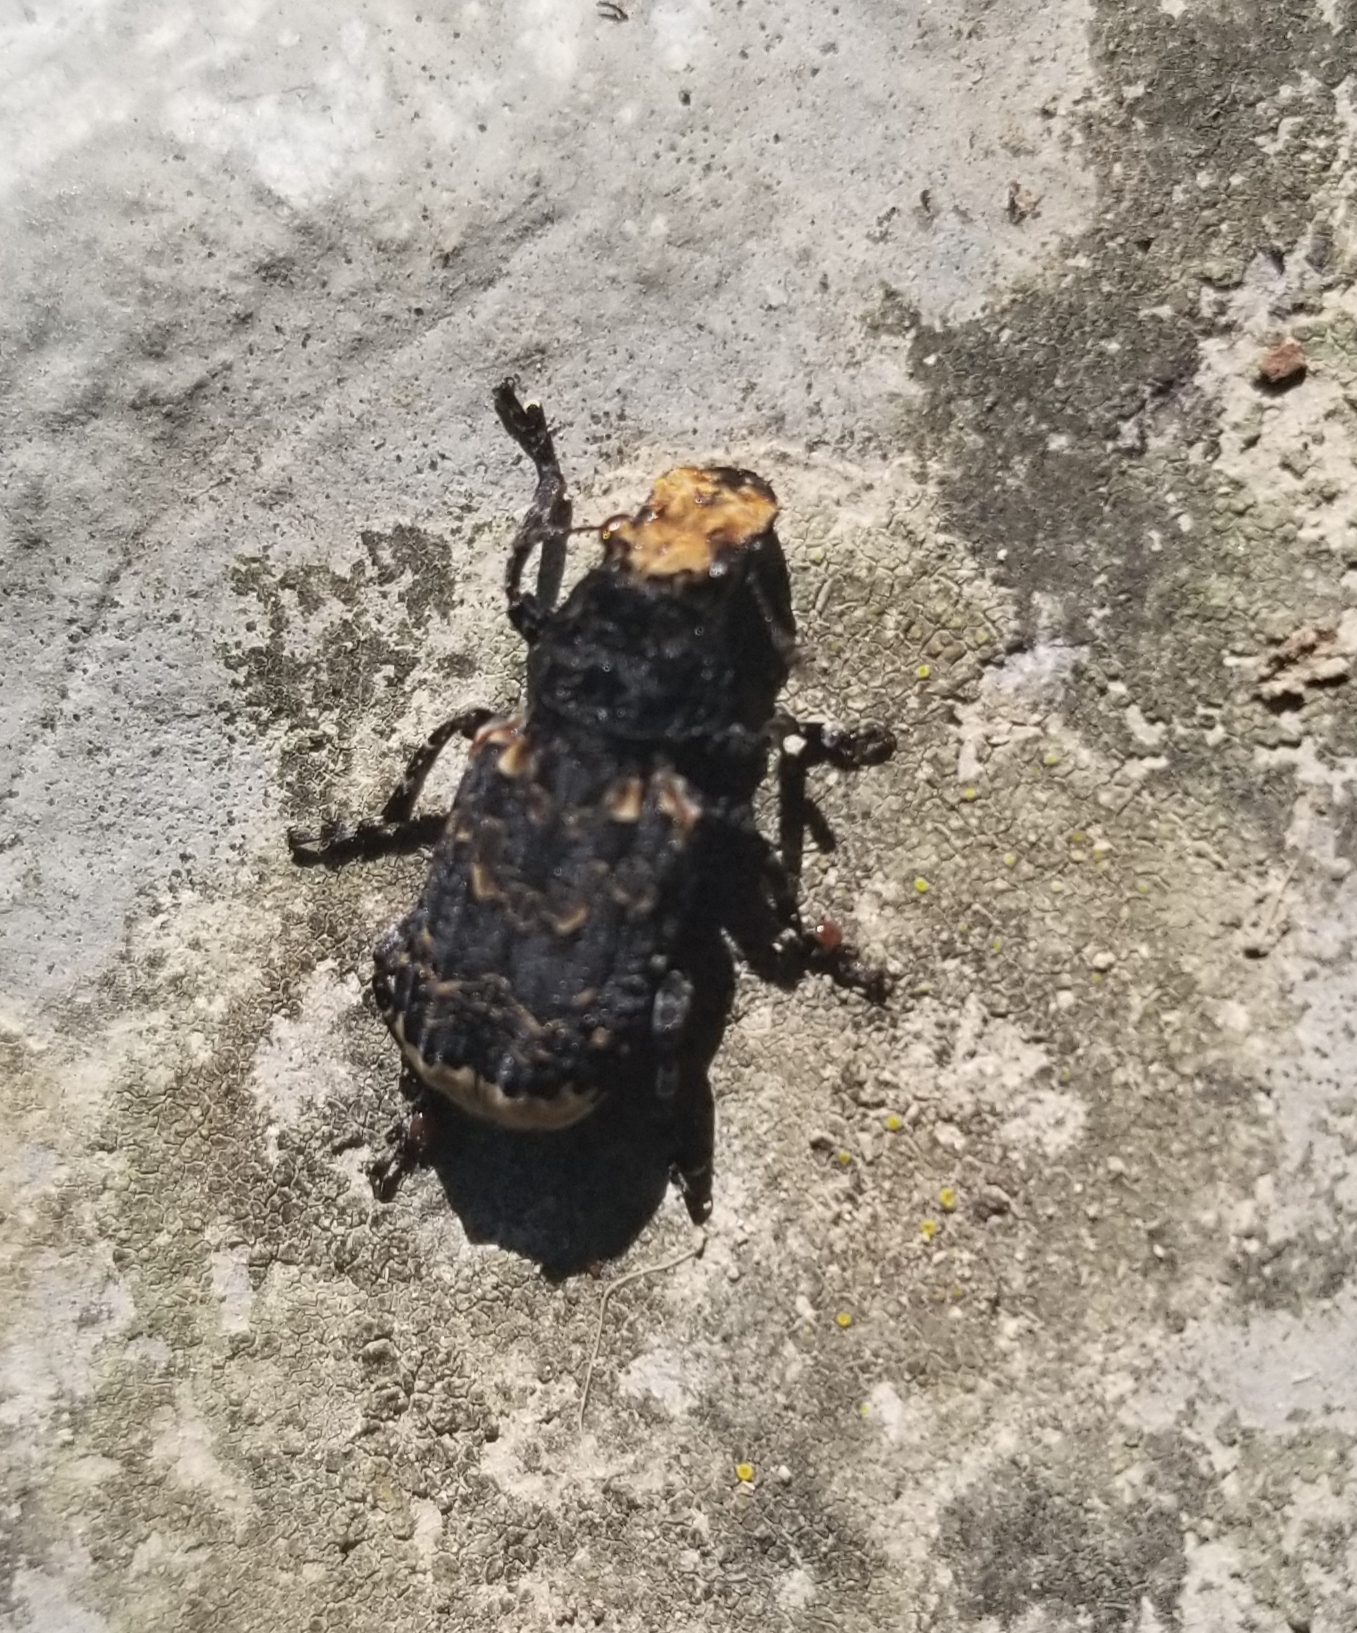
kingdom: Animalia
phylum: Arthropoda
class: Insecta
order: Coleoptera
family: Anthribidae
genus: Platyrhinus
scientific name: Platyrhinus resinosus
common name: Cramp-ball fungus weevil
